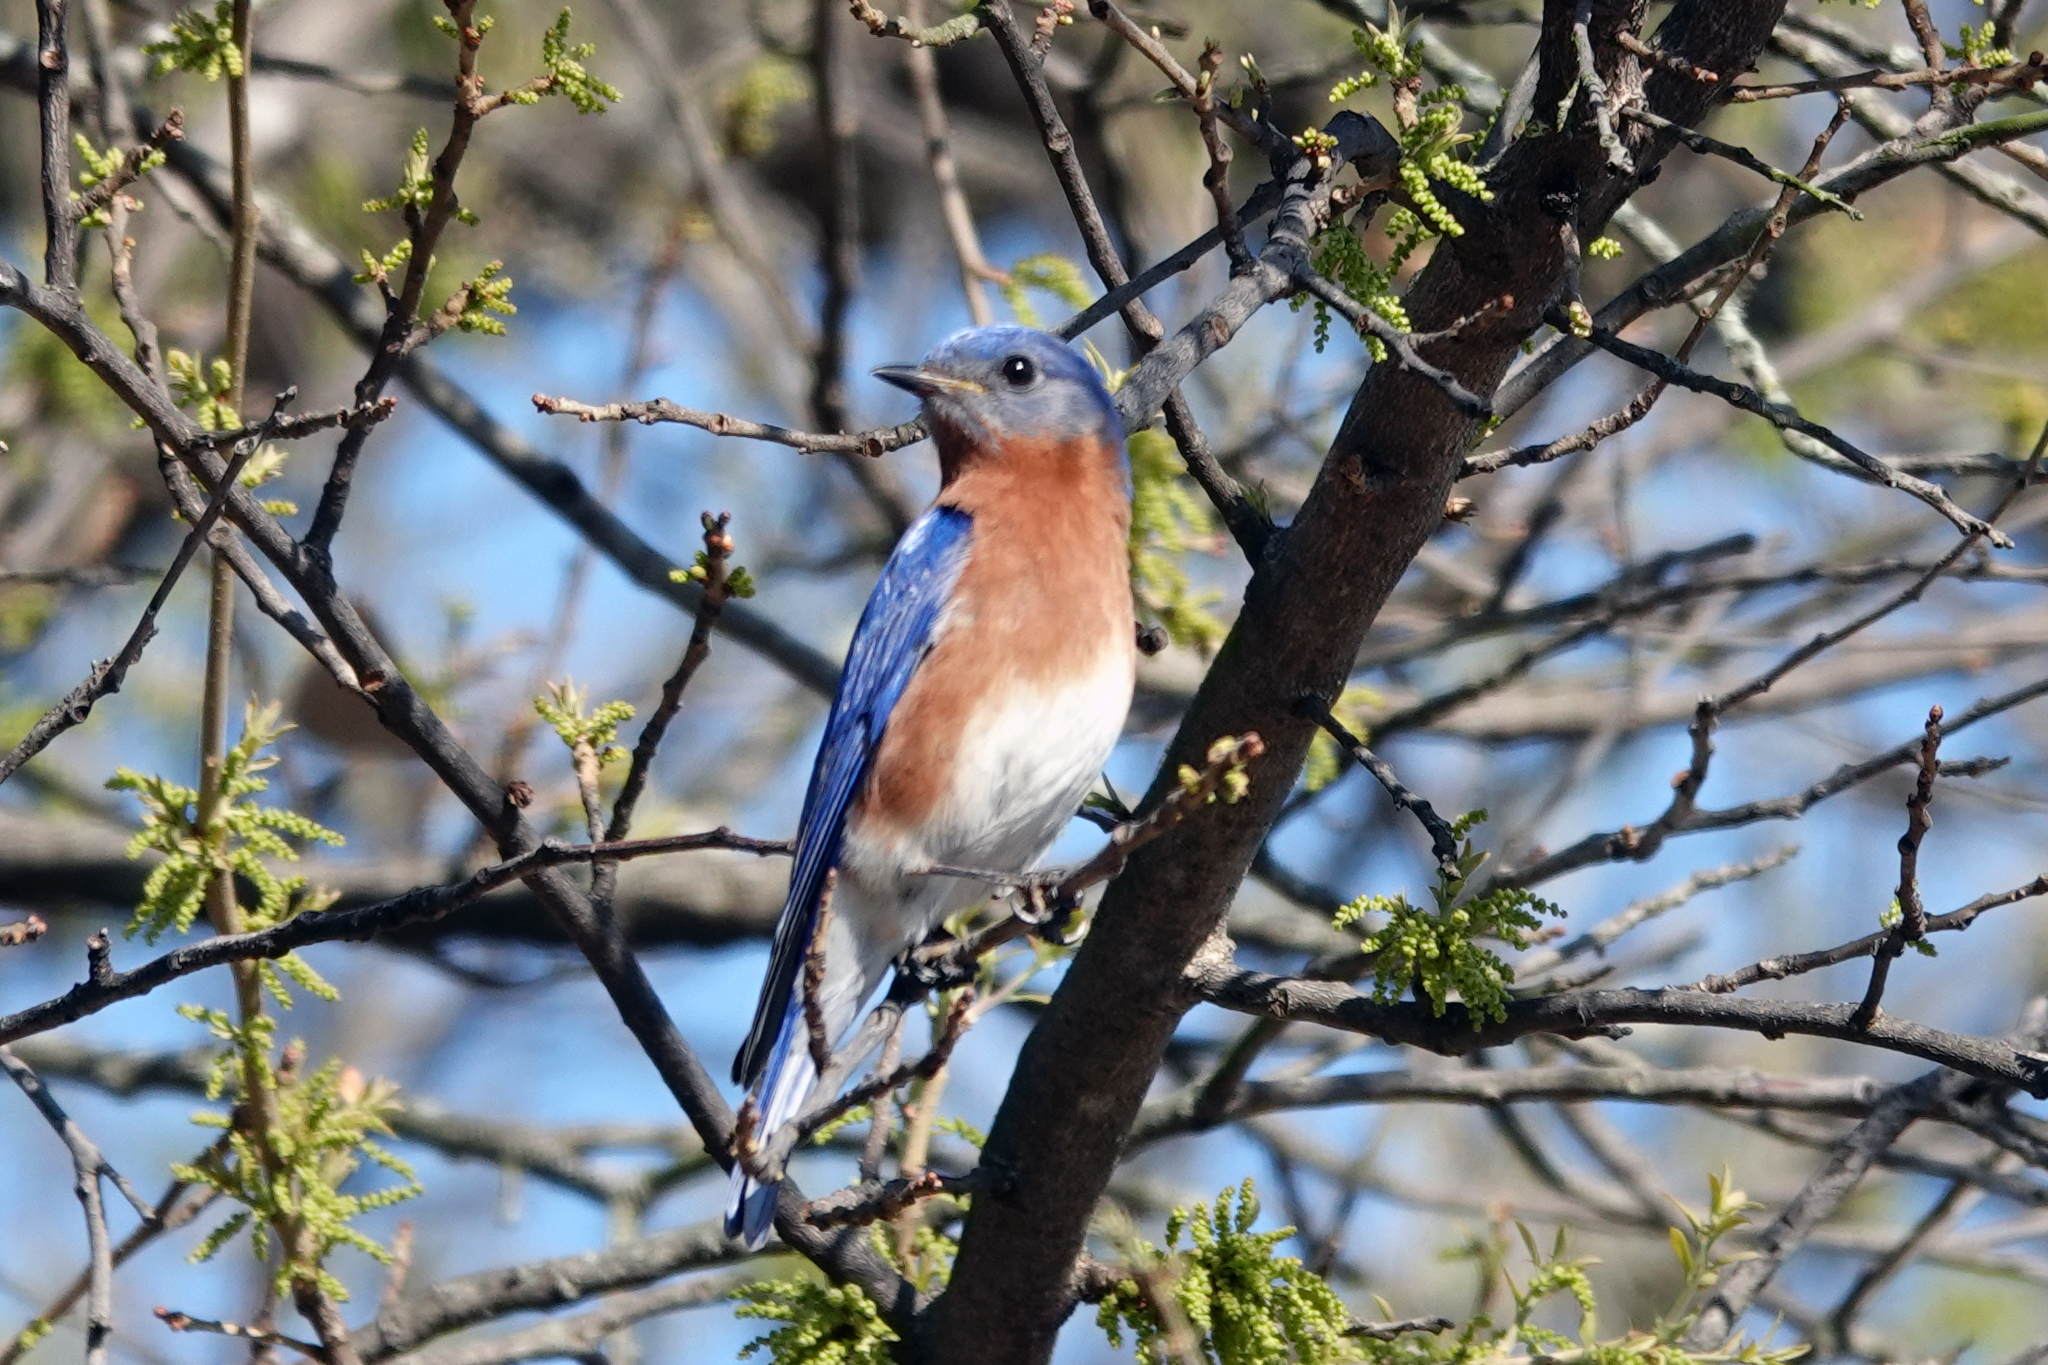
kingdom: Animalia
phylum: Chordata
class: Aves
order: Passeriformes
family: Turdidae
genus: Sialia
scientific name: Sialia sialis
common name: Eastern bluebird
